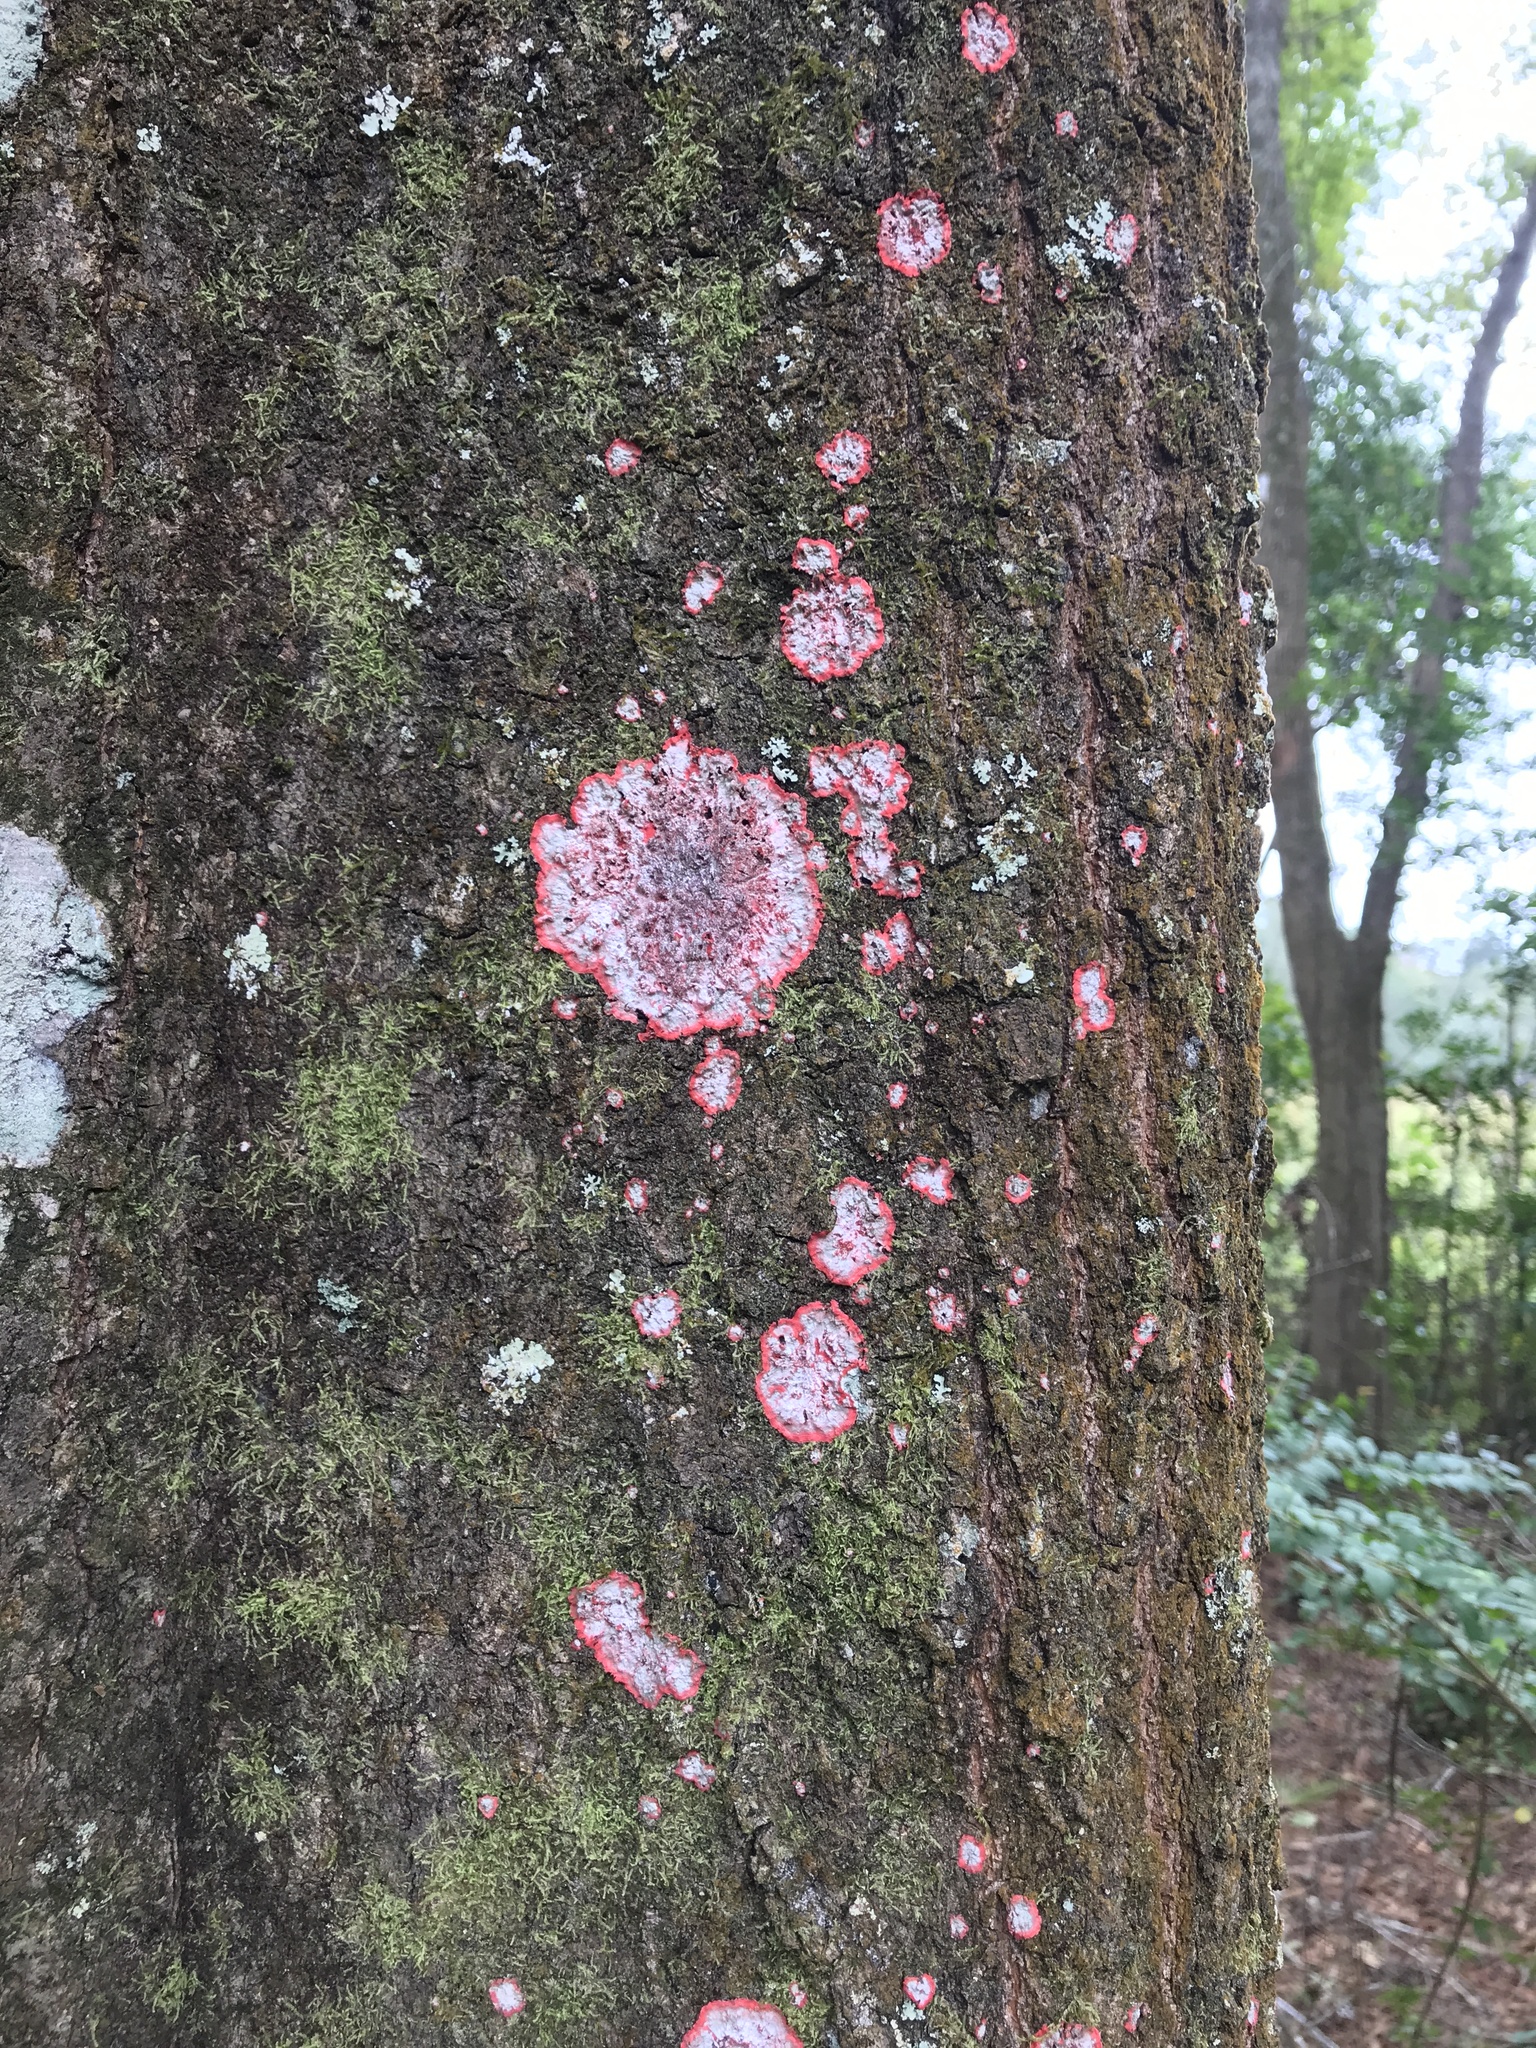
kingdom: Fungi
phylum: Ascomycota
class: Arthoniomycetes
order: Arthoniales
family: Arthoniaceae
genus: Herpothallon
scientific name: Herpothallon rubrocinctum
